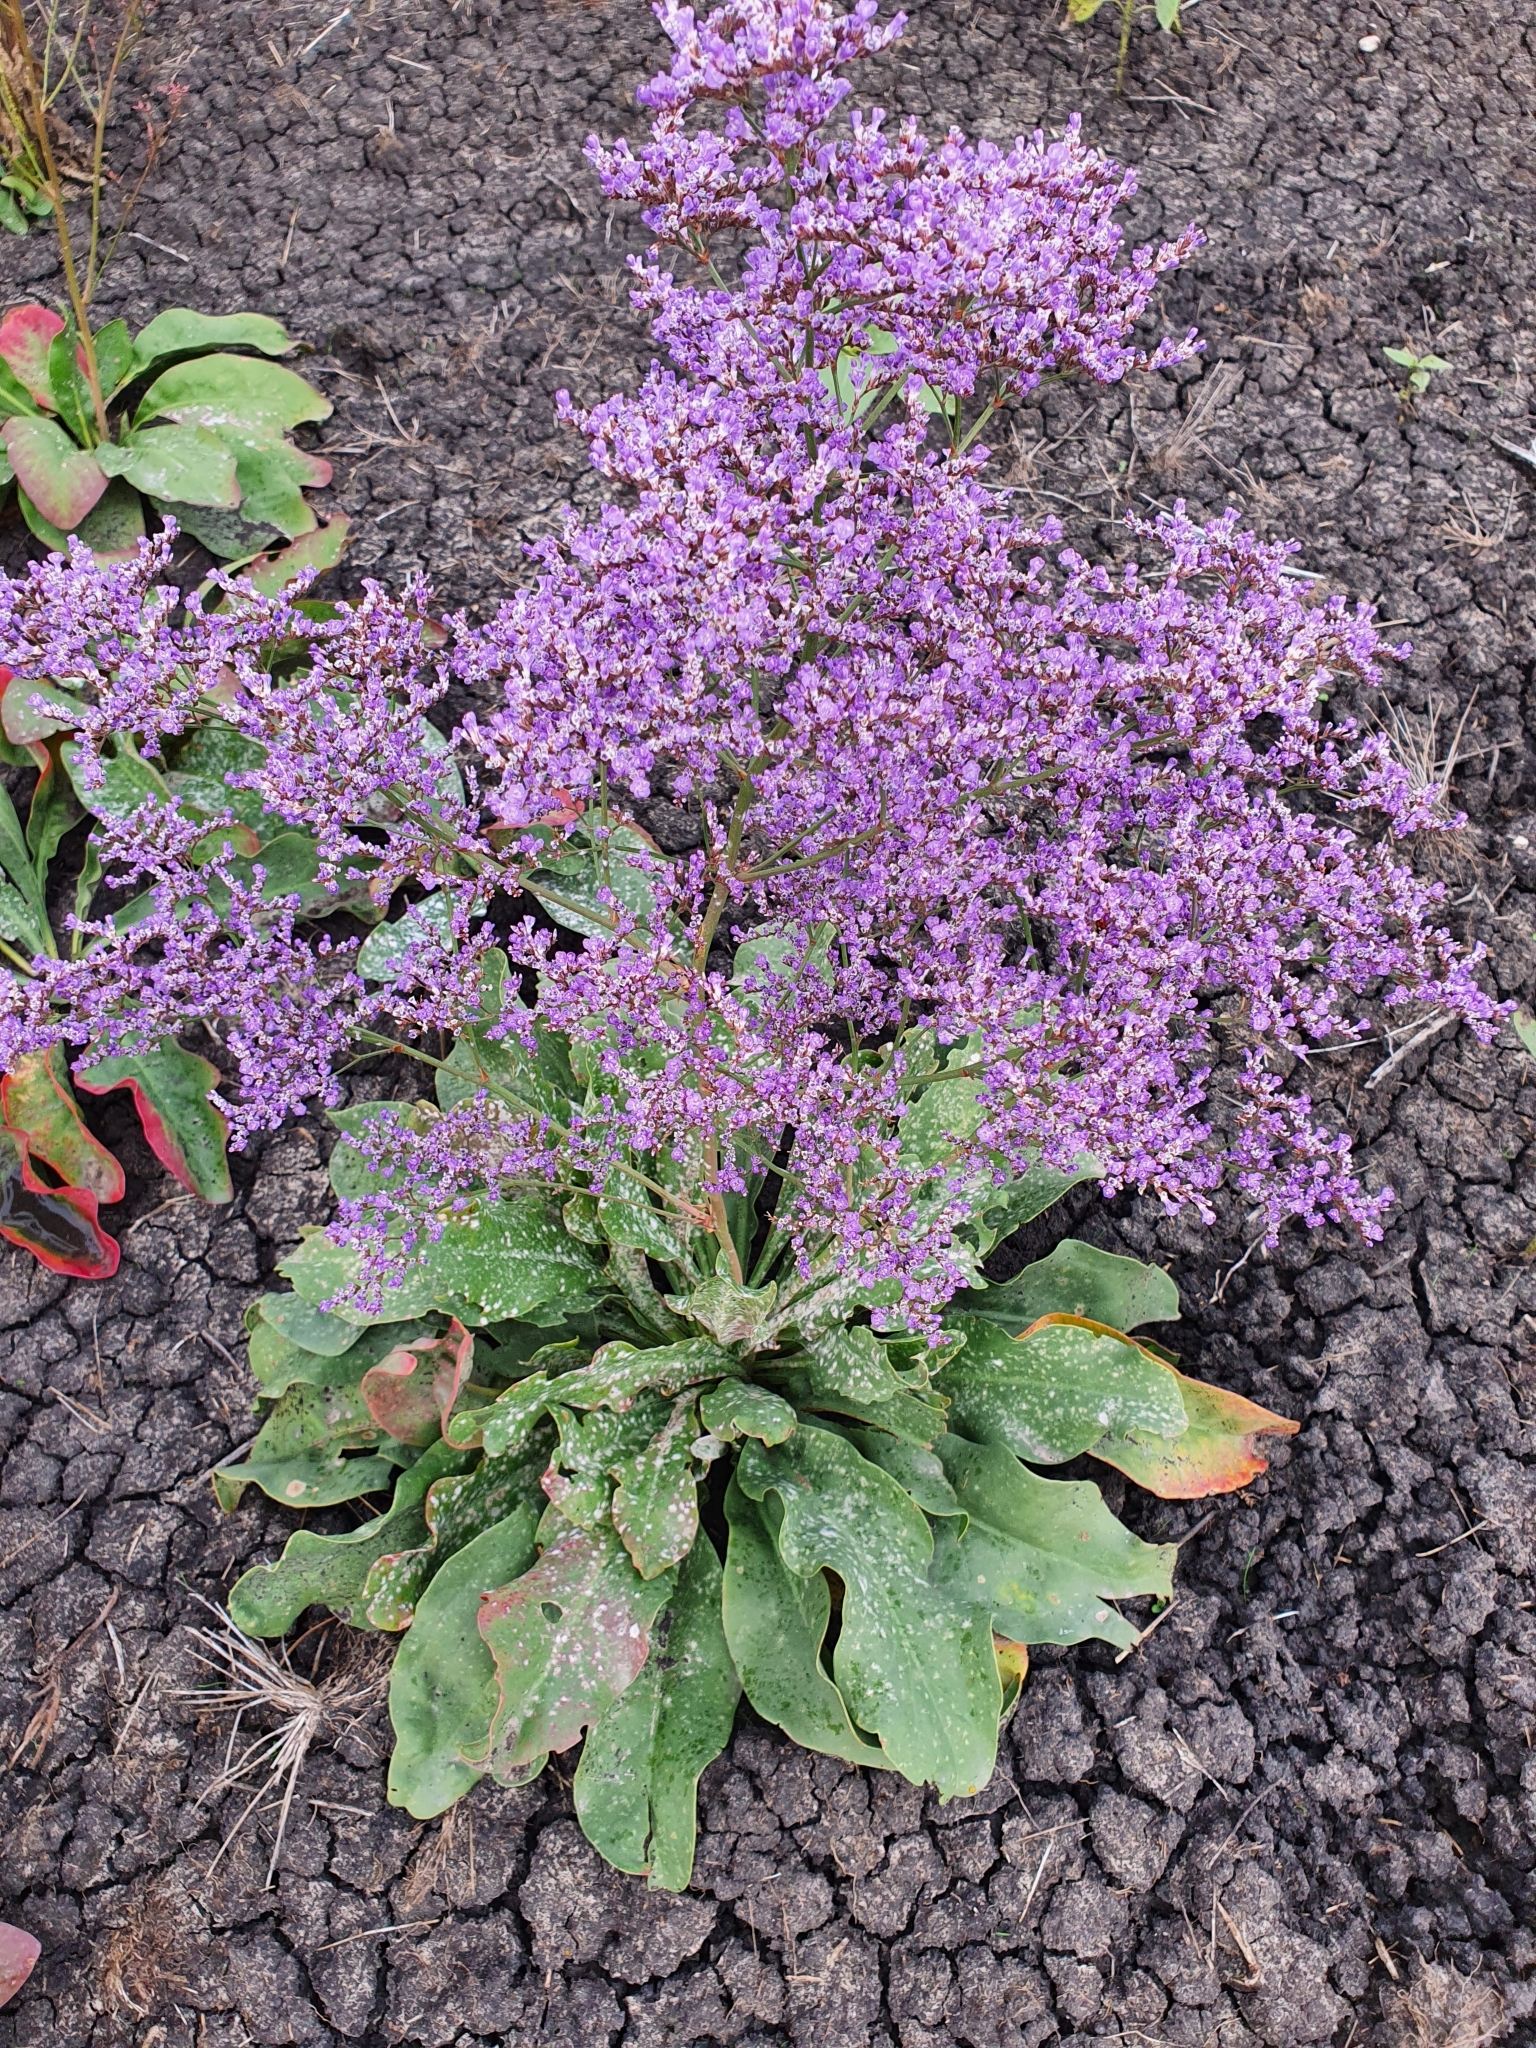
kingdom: Plantae
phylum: Tracheophyta
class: Magnoliopsida
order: Caryophyllales
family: Plumbaginaceae
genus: Limonium
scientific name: Limonium gmelini
